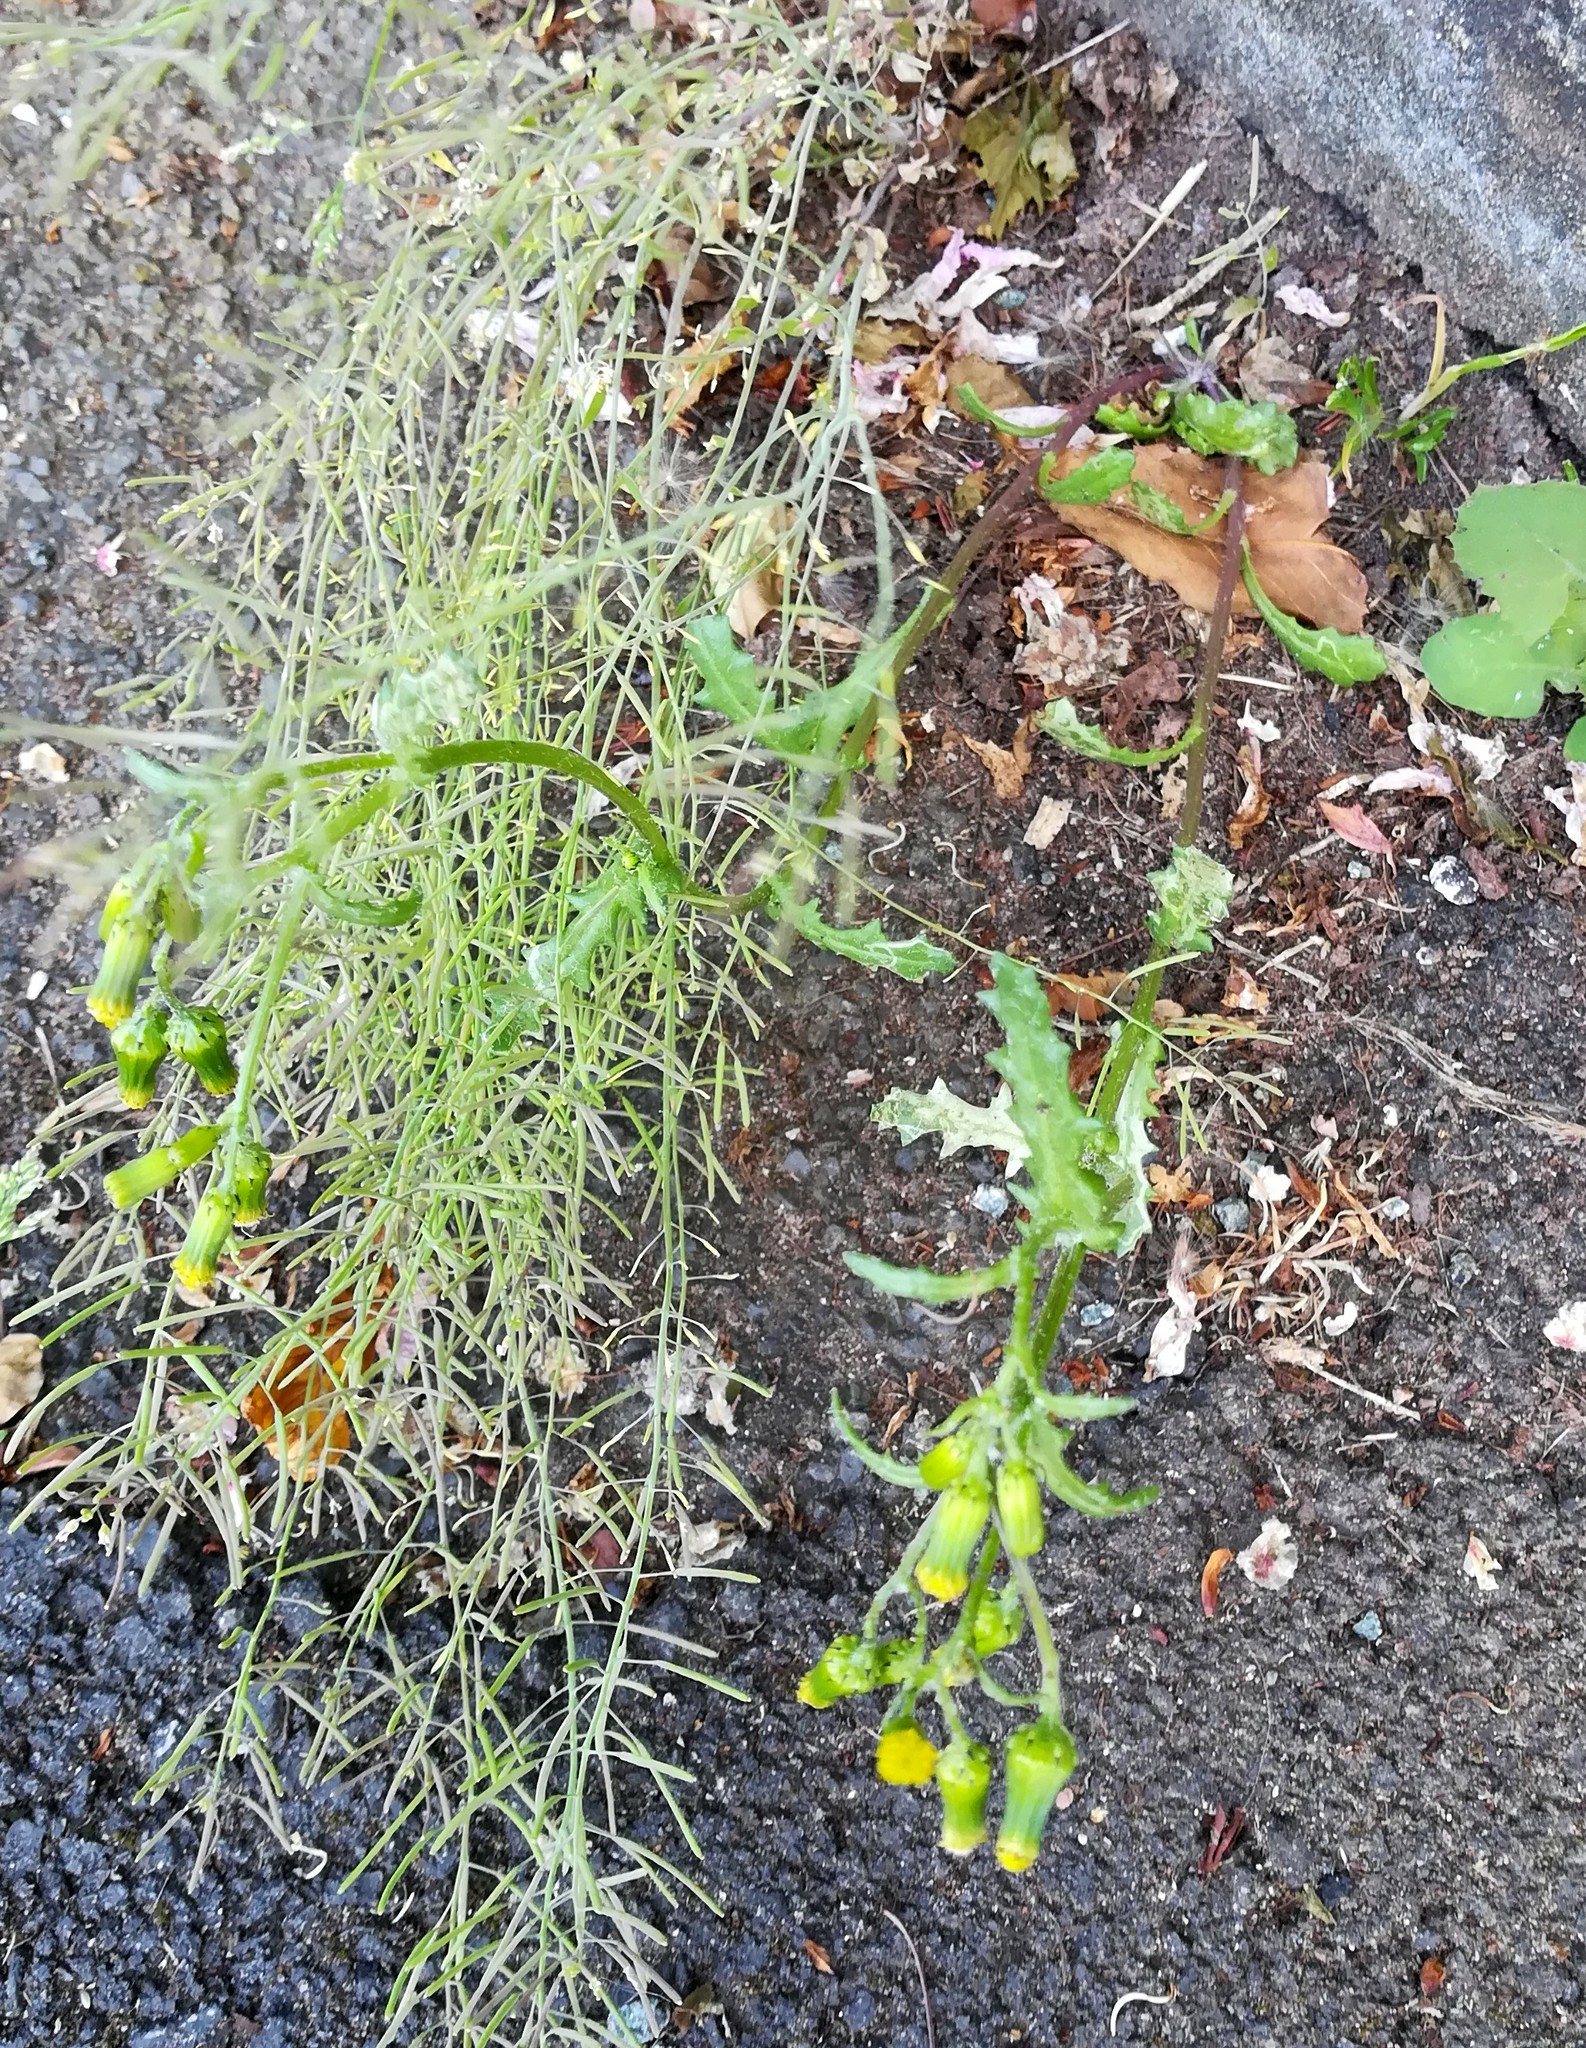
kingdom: Plantae
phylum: Tracheophyta
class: Magnoliopsida
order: Asterales
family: Asteraceae
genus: Senecio
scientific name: Senecio vulgaris
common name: Old-man-in-the-spring
